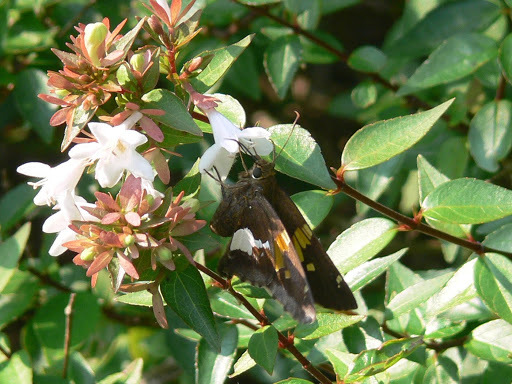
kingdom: Animalia
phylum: Arthropoda
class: Insecta
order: Lepidoptera
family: Hesperiidae
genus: Epargyreus
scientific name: Epargyreus clarus
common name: Silver-spotted skipper
